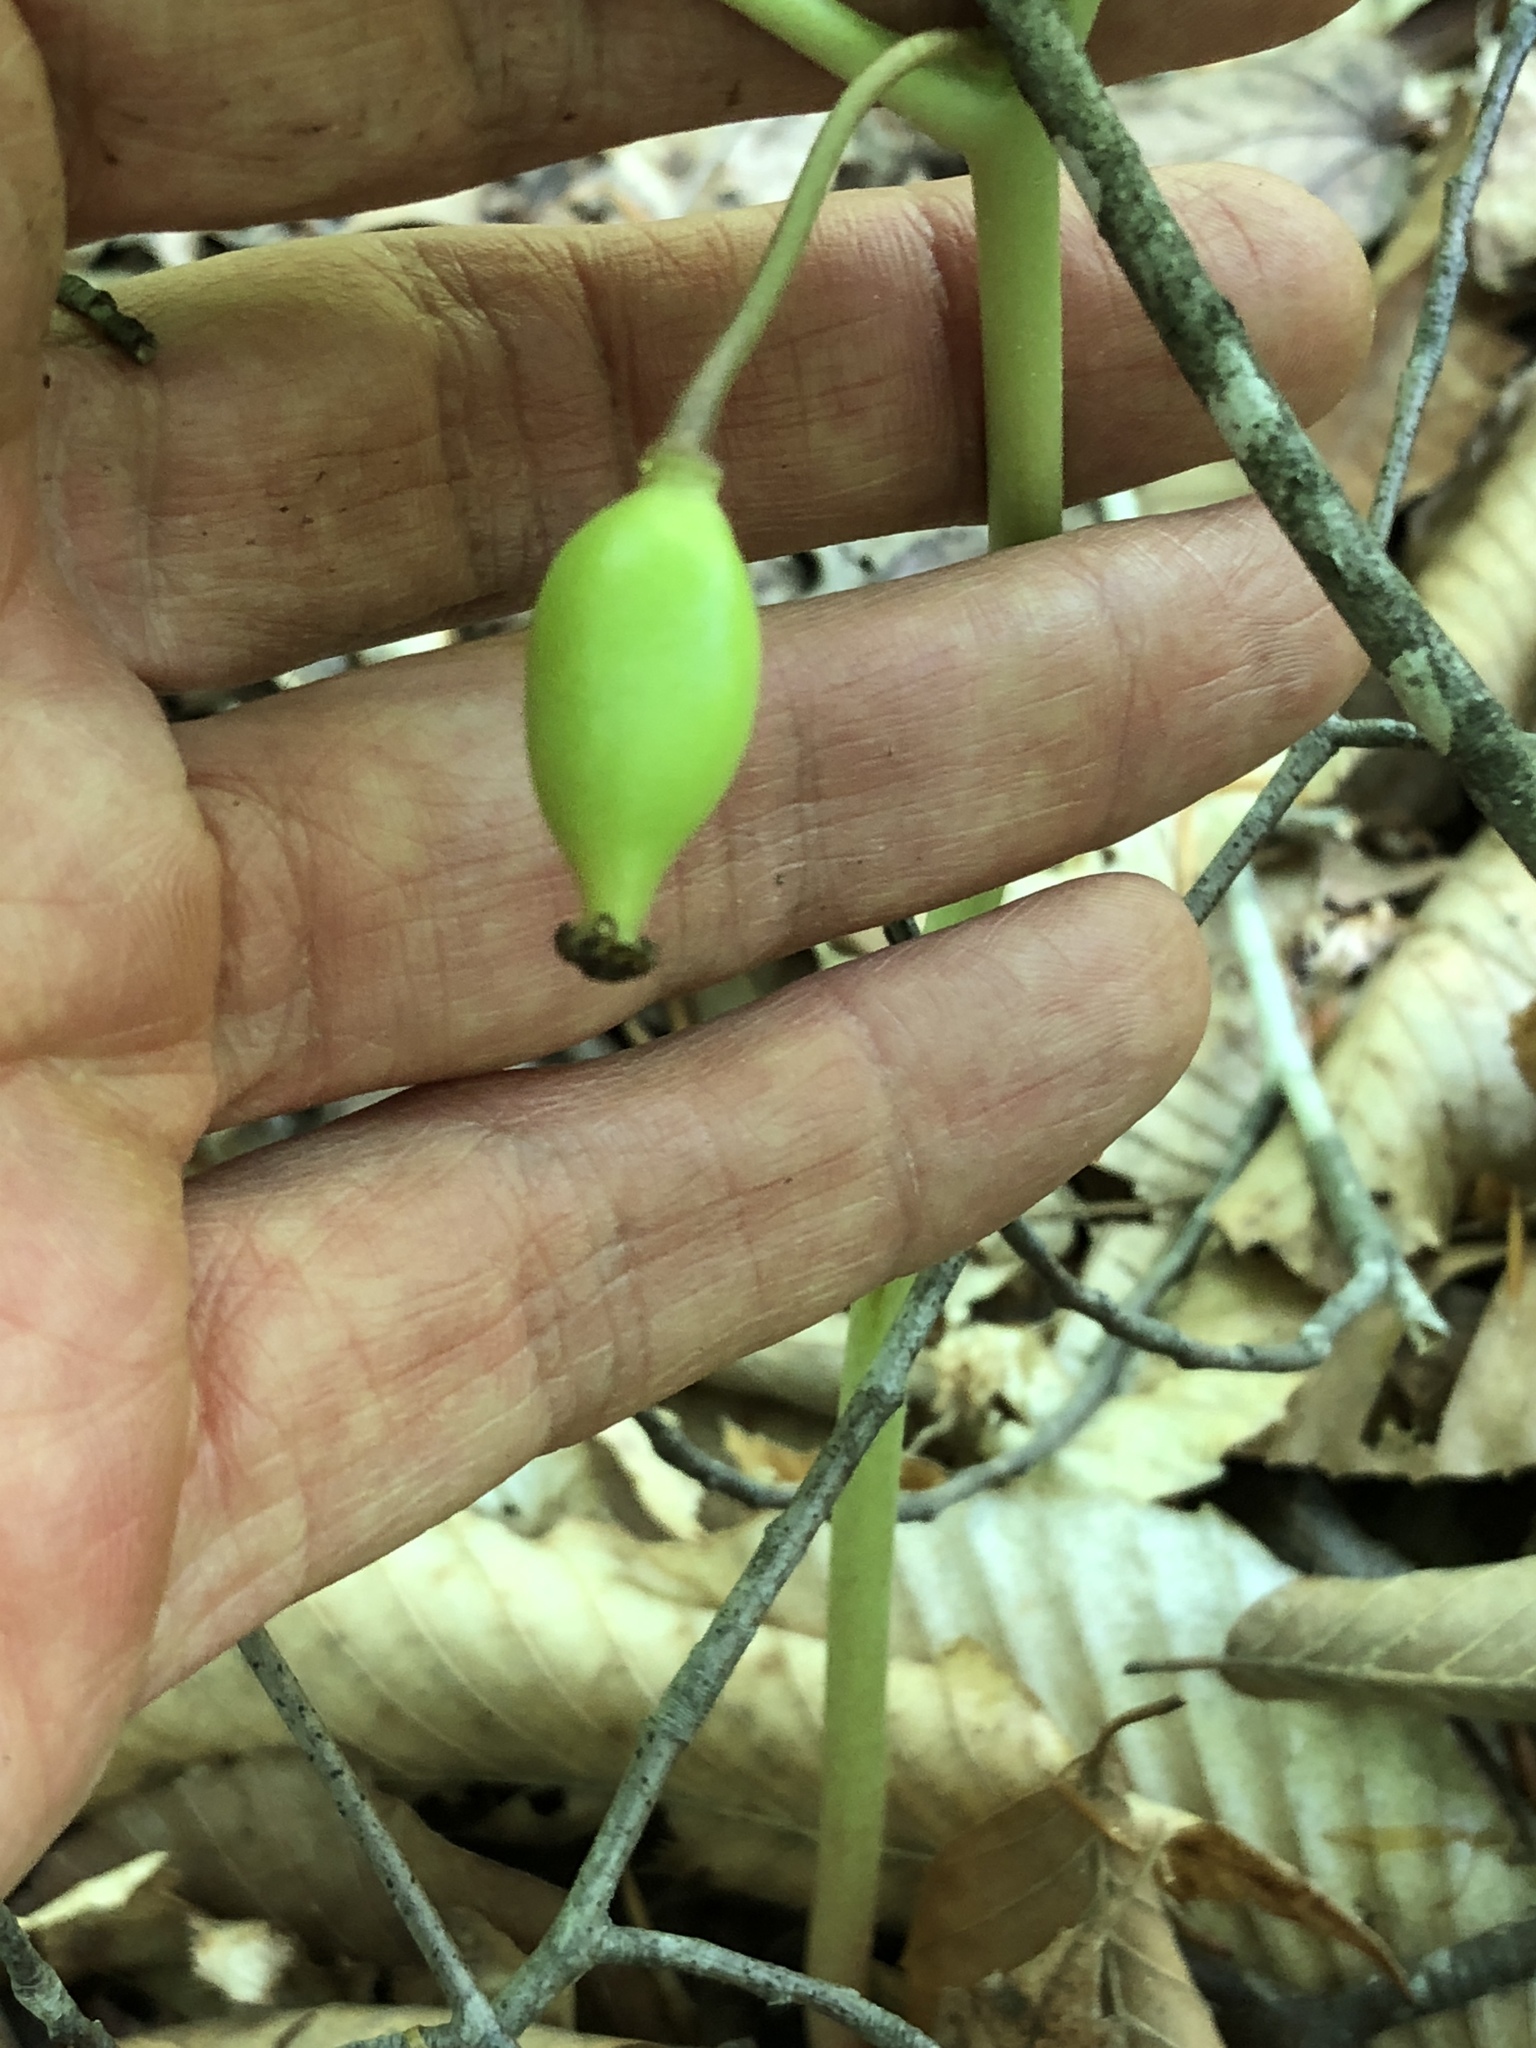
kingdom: Plantae
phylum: Tracheophyta
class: Magnoliopsida
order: Ranunculales
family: Berberidaceae
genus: Podophyllum
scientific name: Podophyllum peltatum
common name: Wild mandrake
